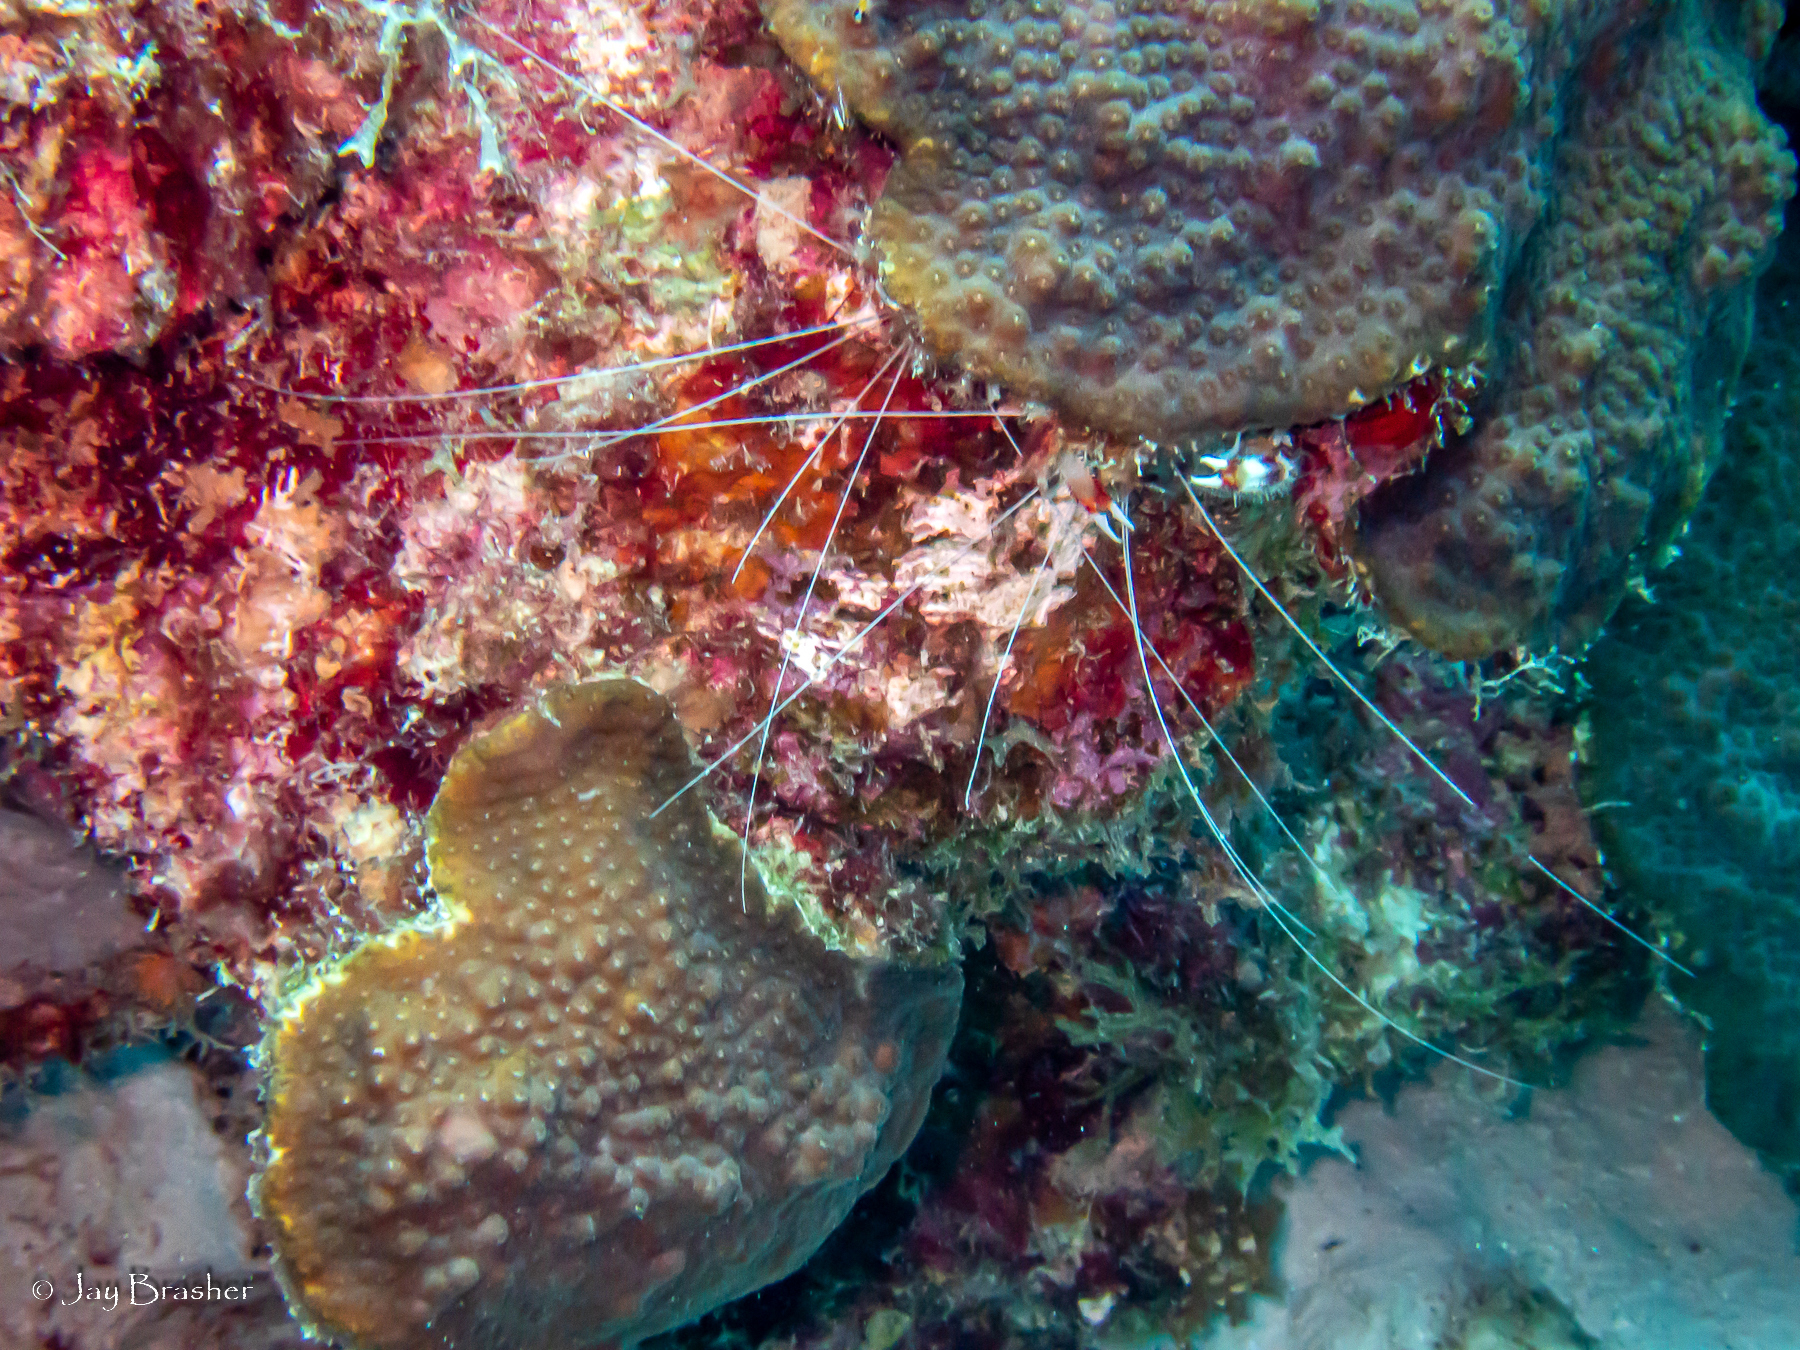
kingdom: Animalia
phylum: Arthropoda
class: Malacostraca
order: Decapoda
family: Stenopodidae
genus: Stenopus
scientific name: Stenopus hispidus
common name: Banded coral shrimp
